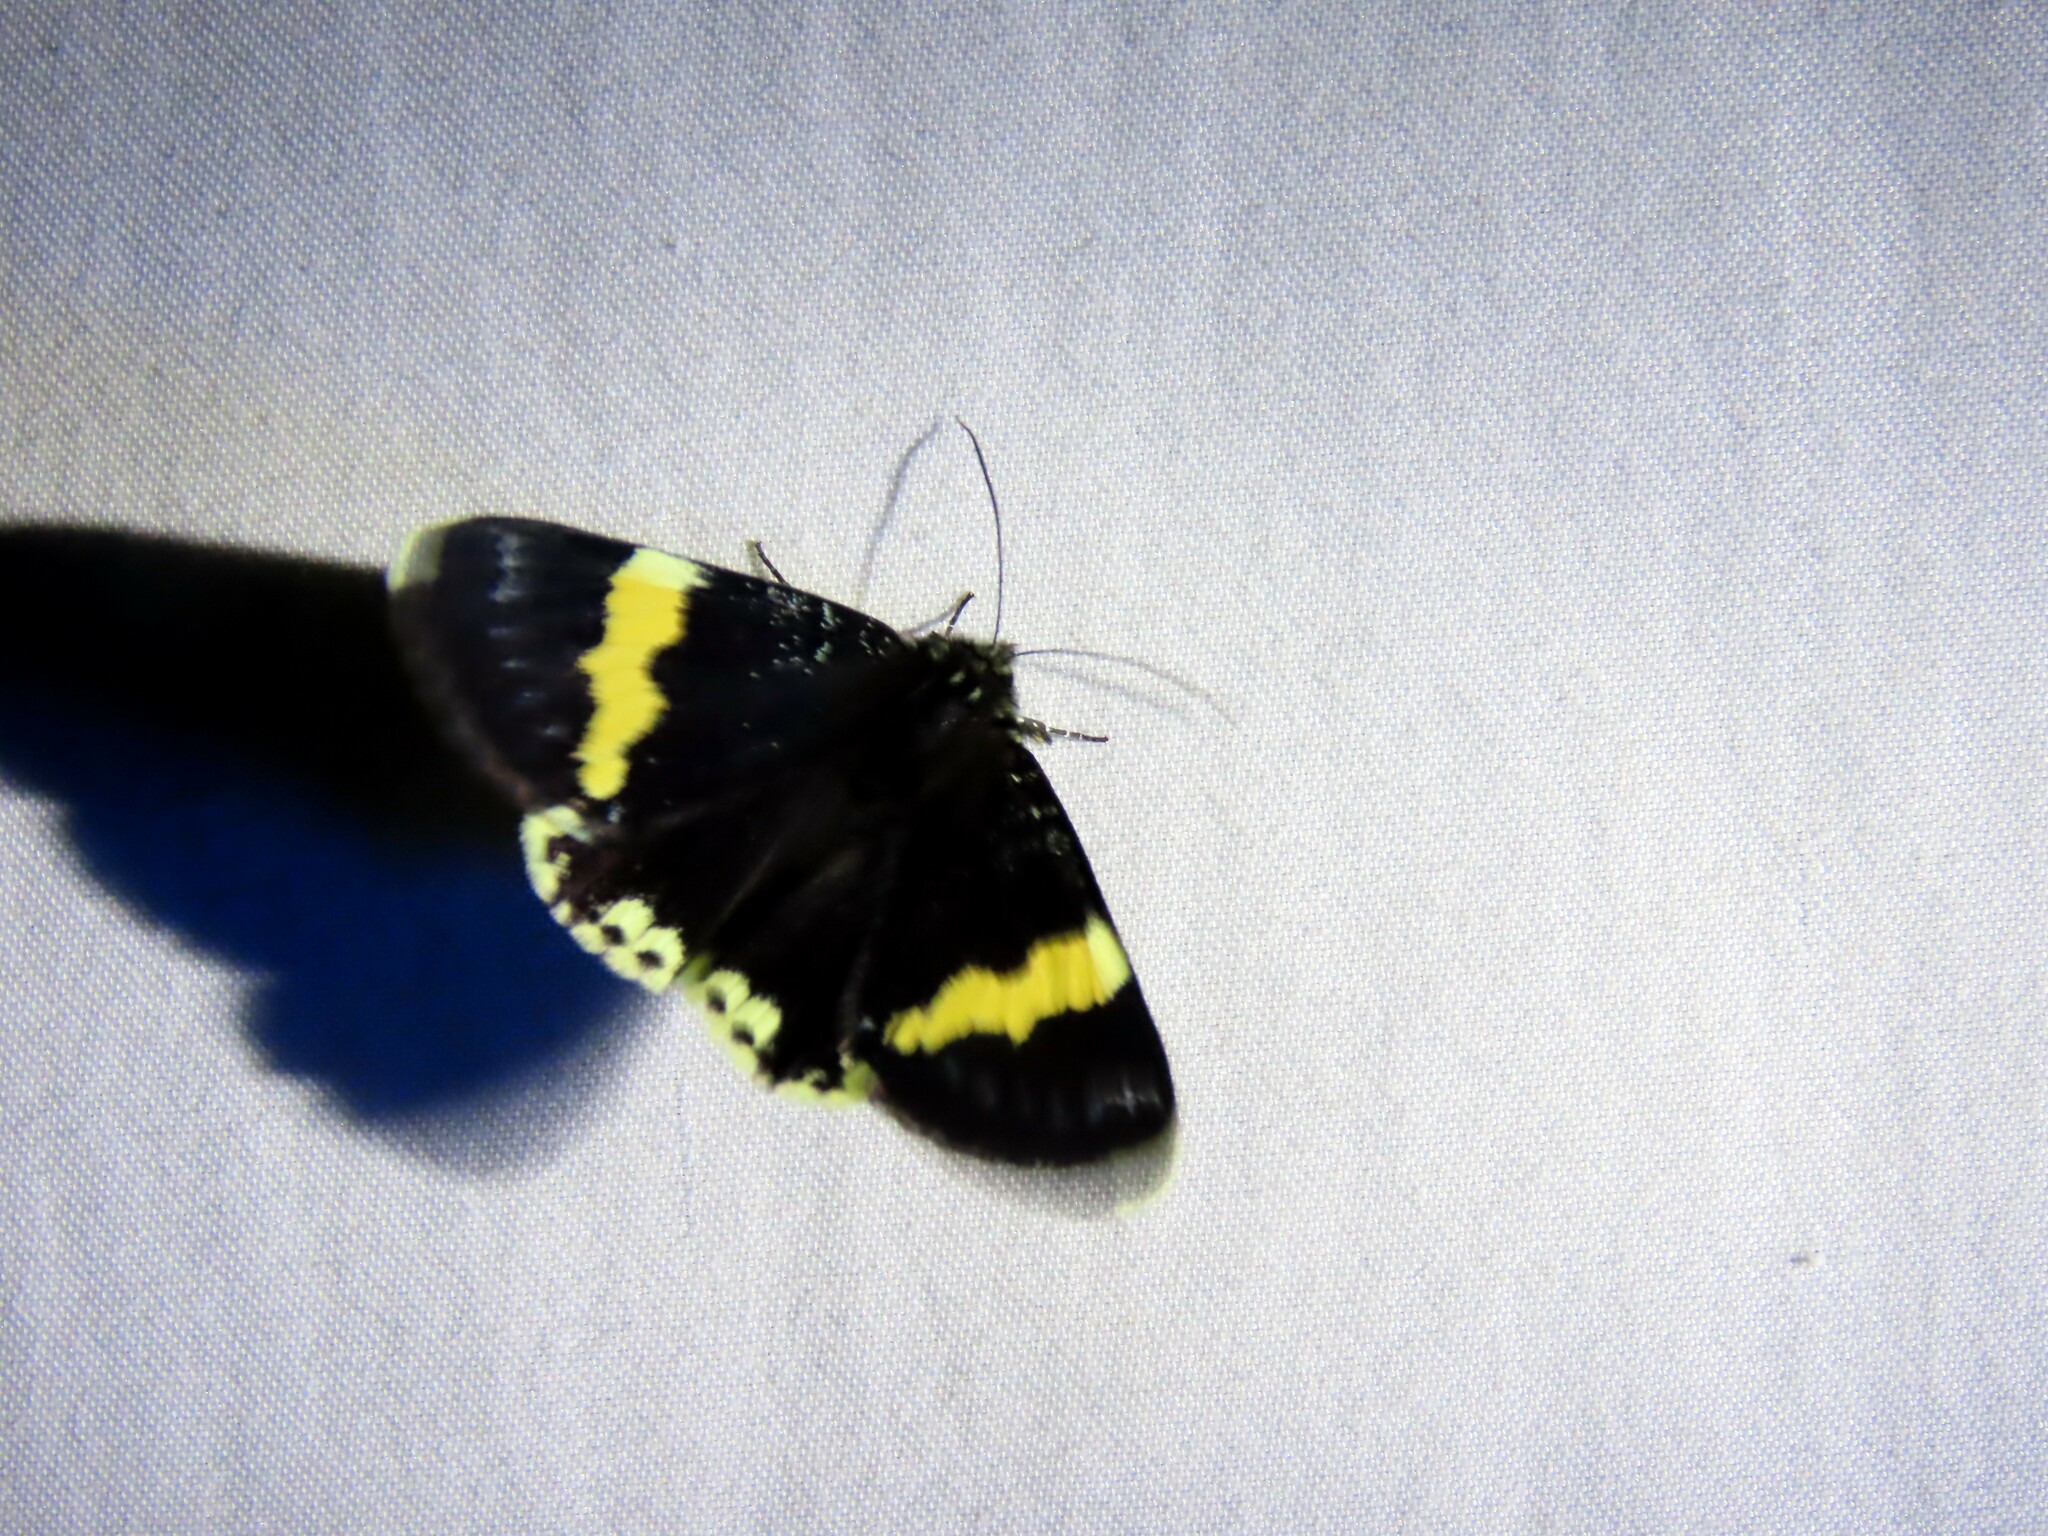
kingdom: Animalia
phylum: Arthropoda
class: Insecta
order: Lepidoptera
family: Noctuidae
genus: Eutrichopidia
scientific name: Eutrichopidia latinus
